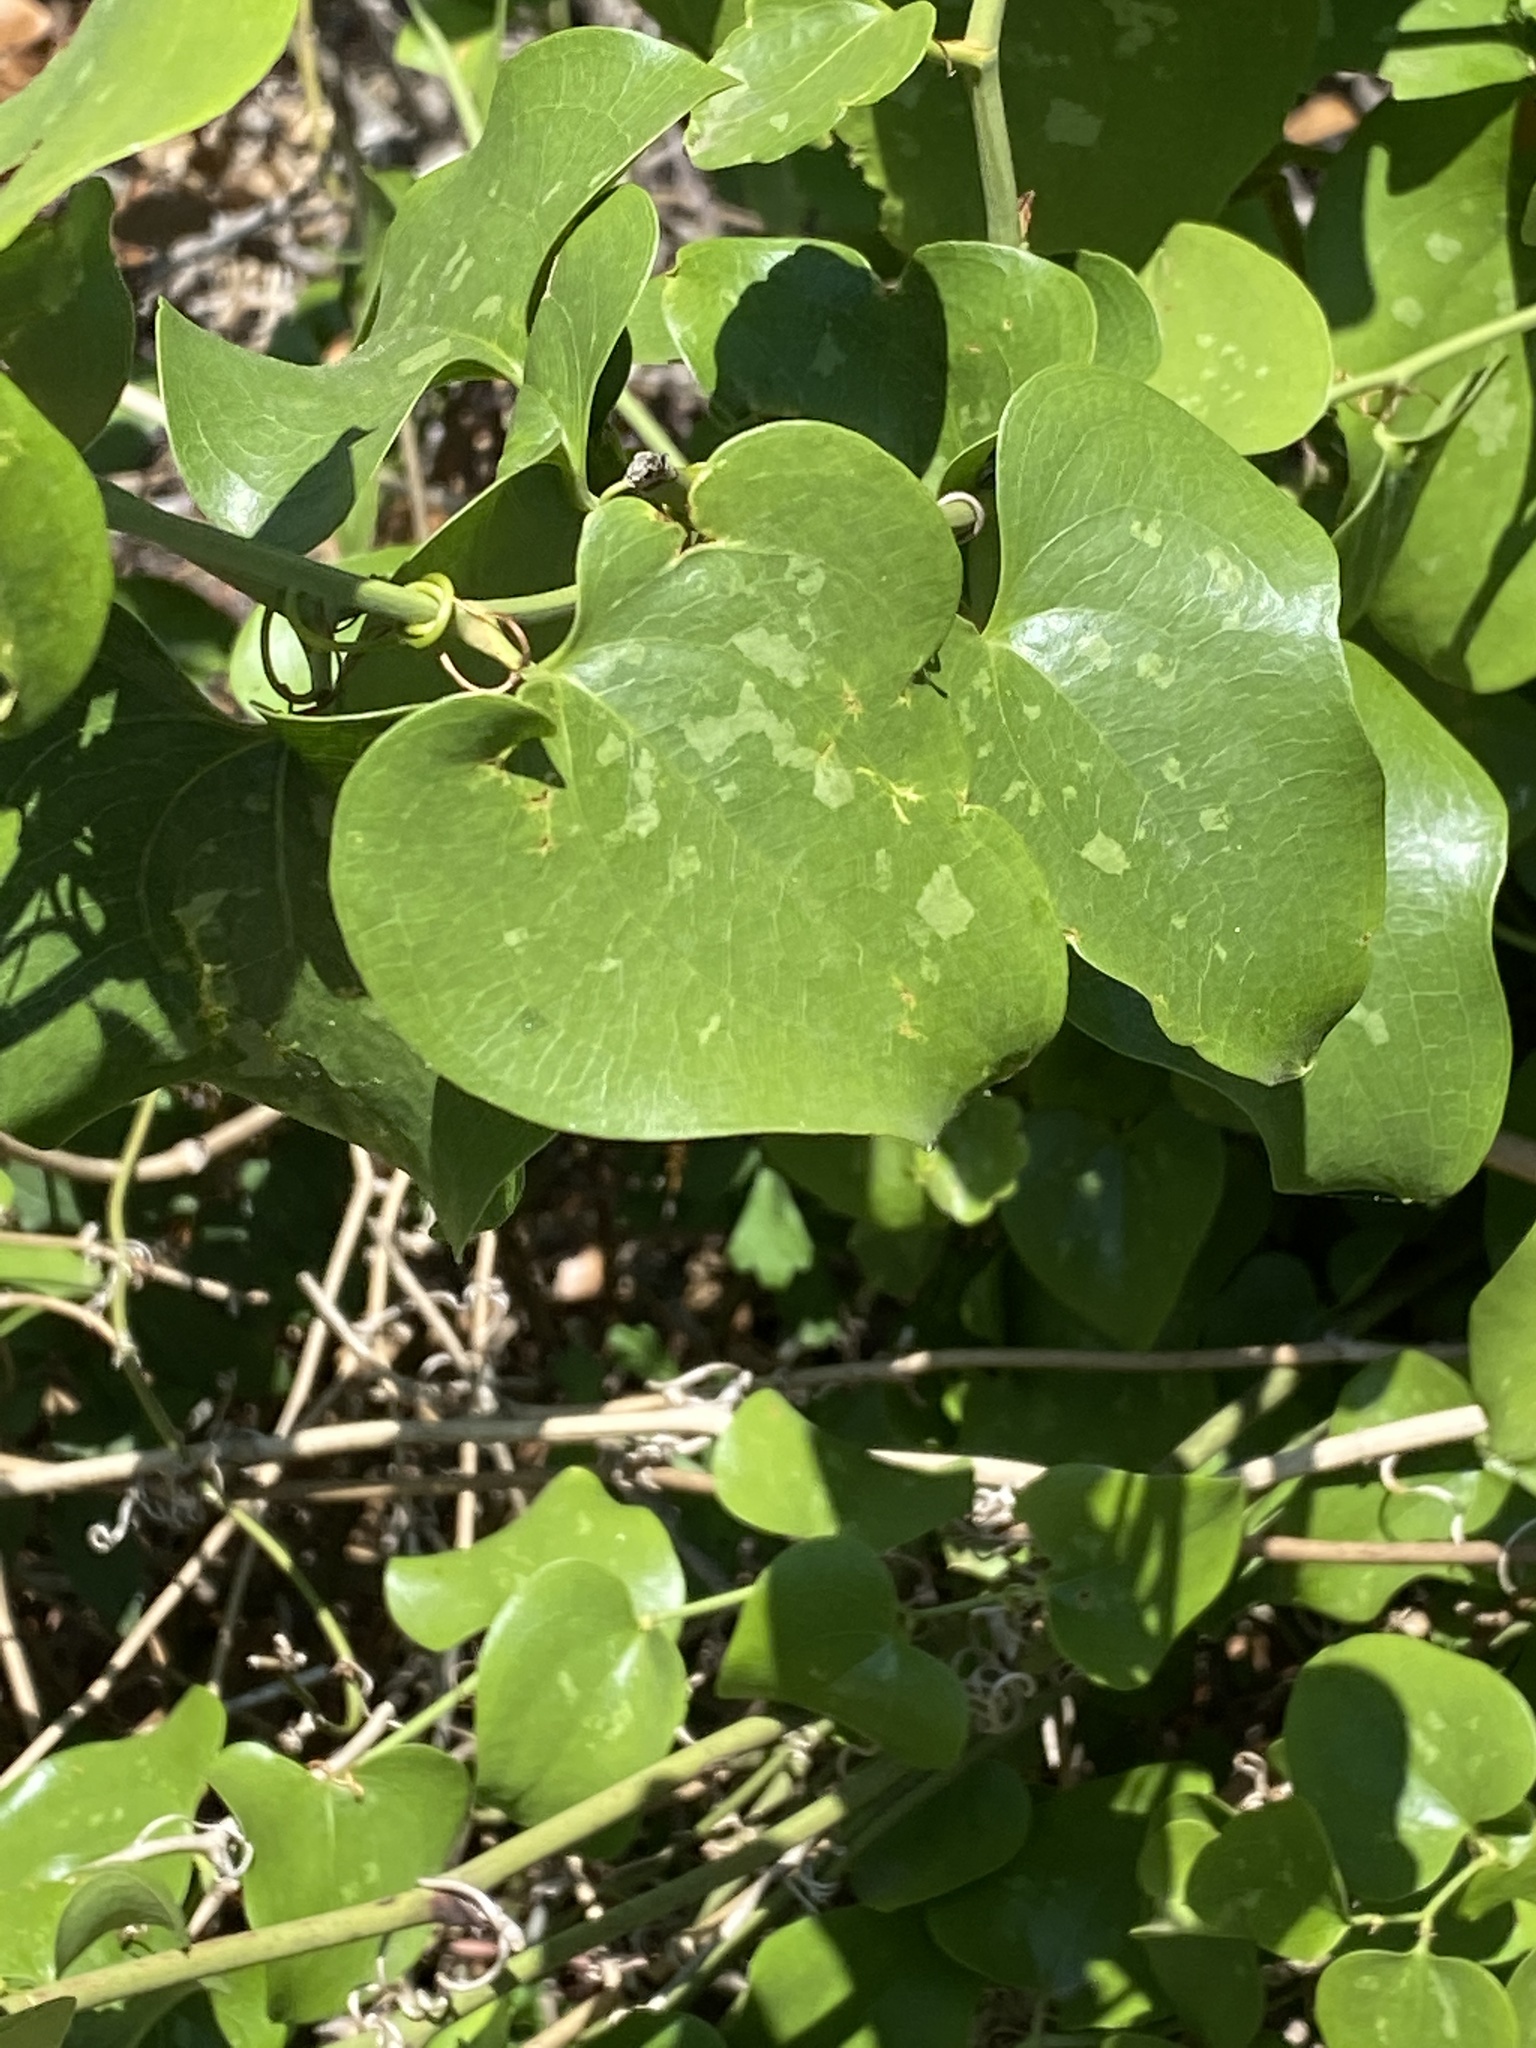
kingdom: Plantae
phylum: Tracheophyta
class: Liliopsida
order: Liliales
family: Smilacaceae
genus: Smilax
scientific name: Smilax bona-nox
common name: Catbrier
